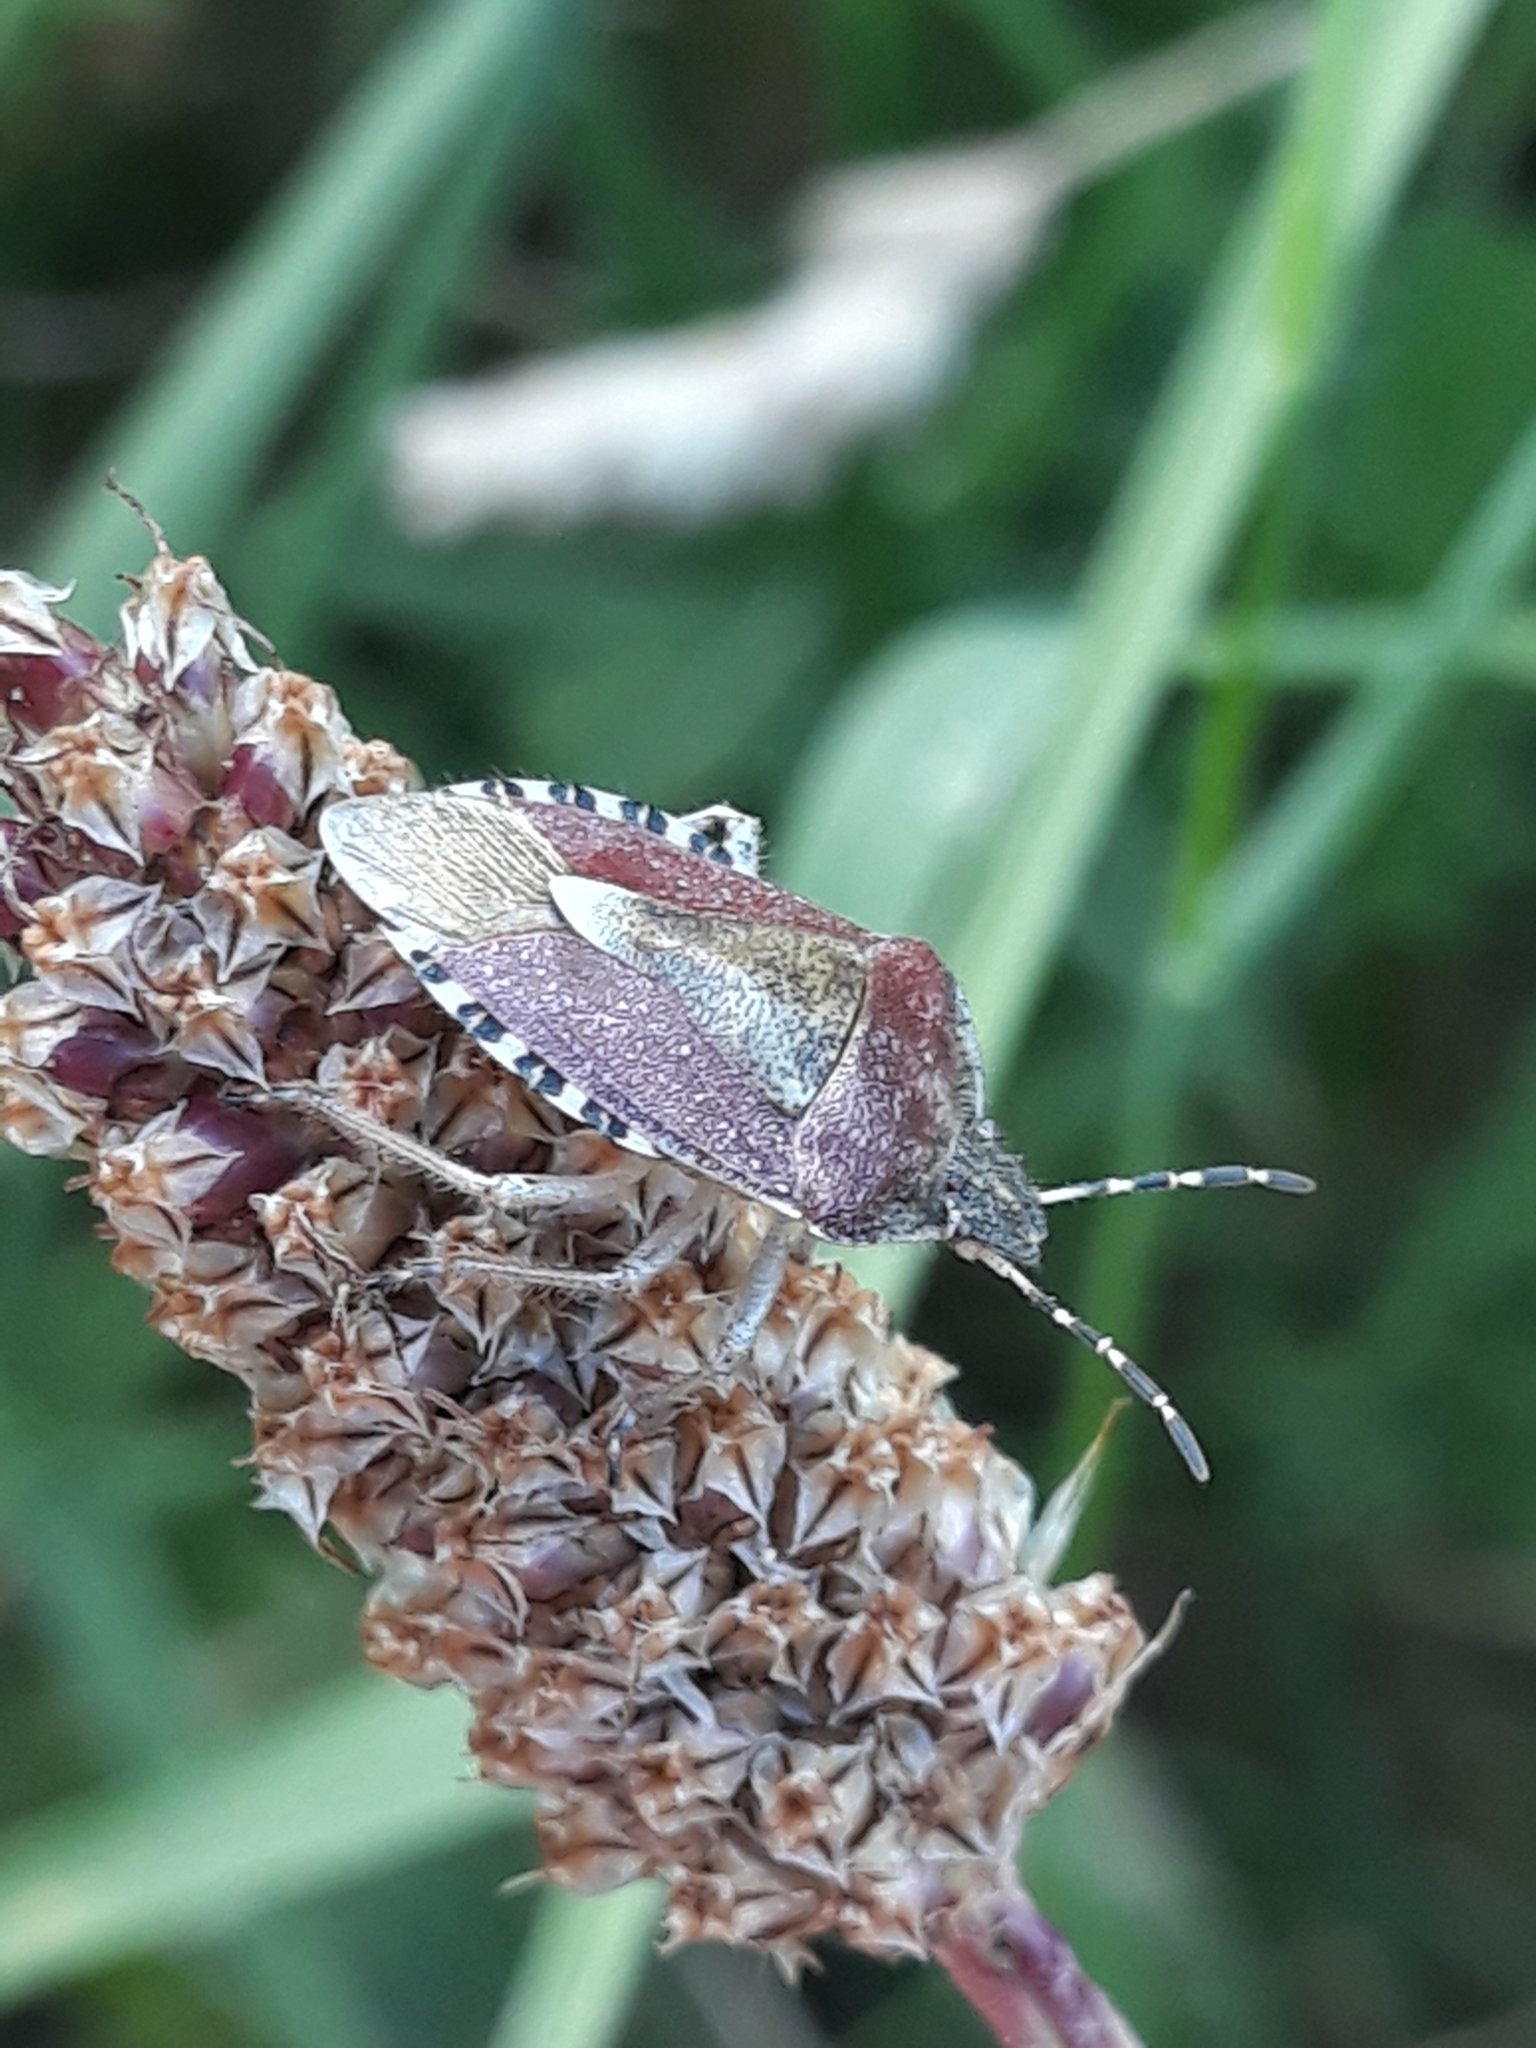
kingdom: Animalia
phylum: Arthropoda
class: Insecta
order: Hemiptera
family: Pentatomidae
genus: Dolycoris
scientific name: Dolycoris baccarum
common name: Sloe bug
